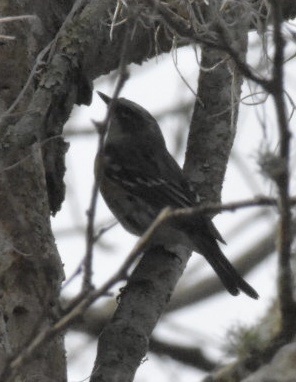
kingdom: Animalia
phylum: Chordata
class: Aves
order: Passeriformes
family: Parulidae
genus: Setophaga
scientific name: Setophaga coronata
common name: Myrtle warbler
